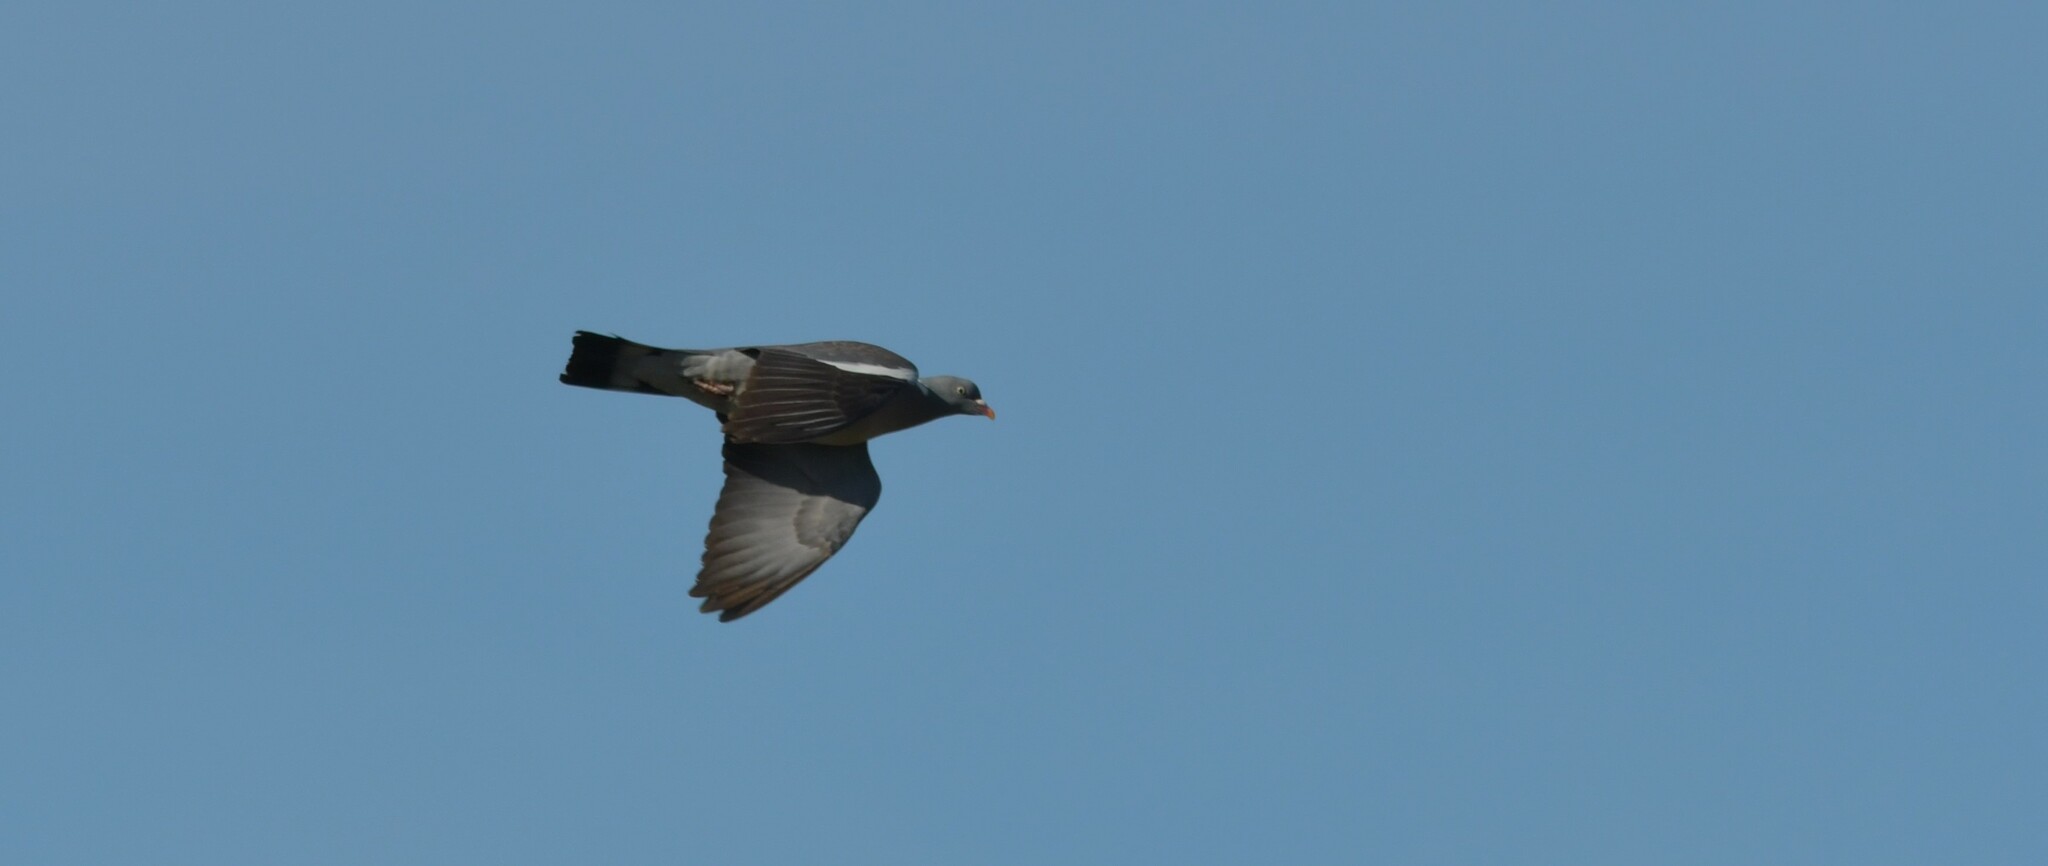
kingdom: Animalia
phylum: Chordata
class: Aves
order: Columbiformes
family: Columbidae
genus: Columba
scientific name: Columba palumbus
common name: Common wood pigeon
